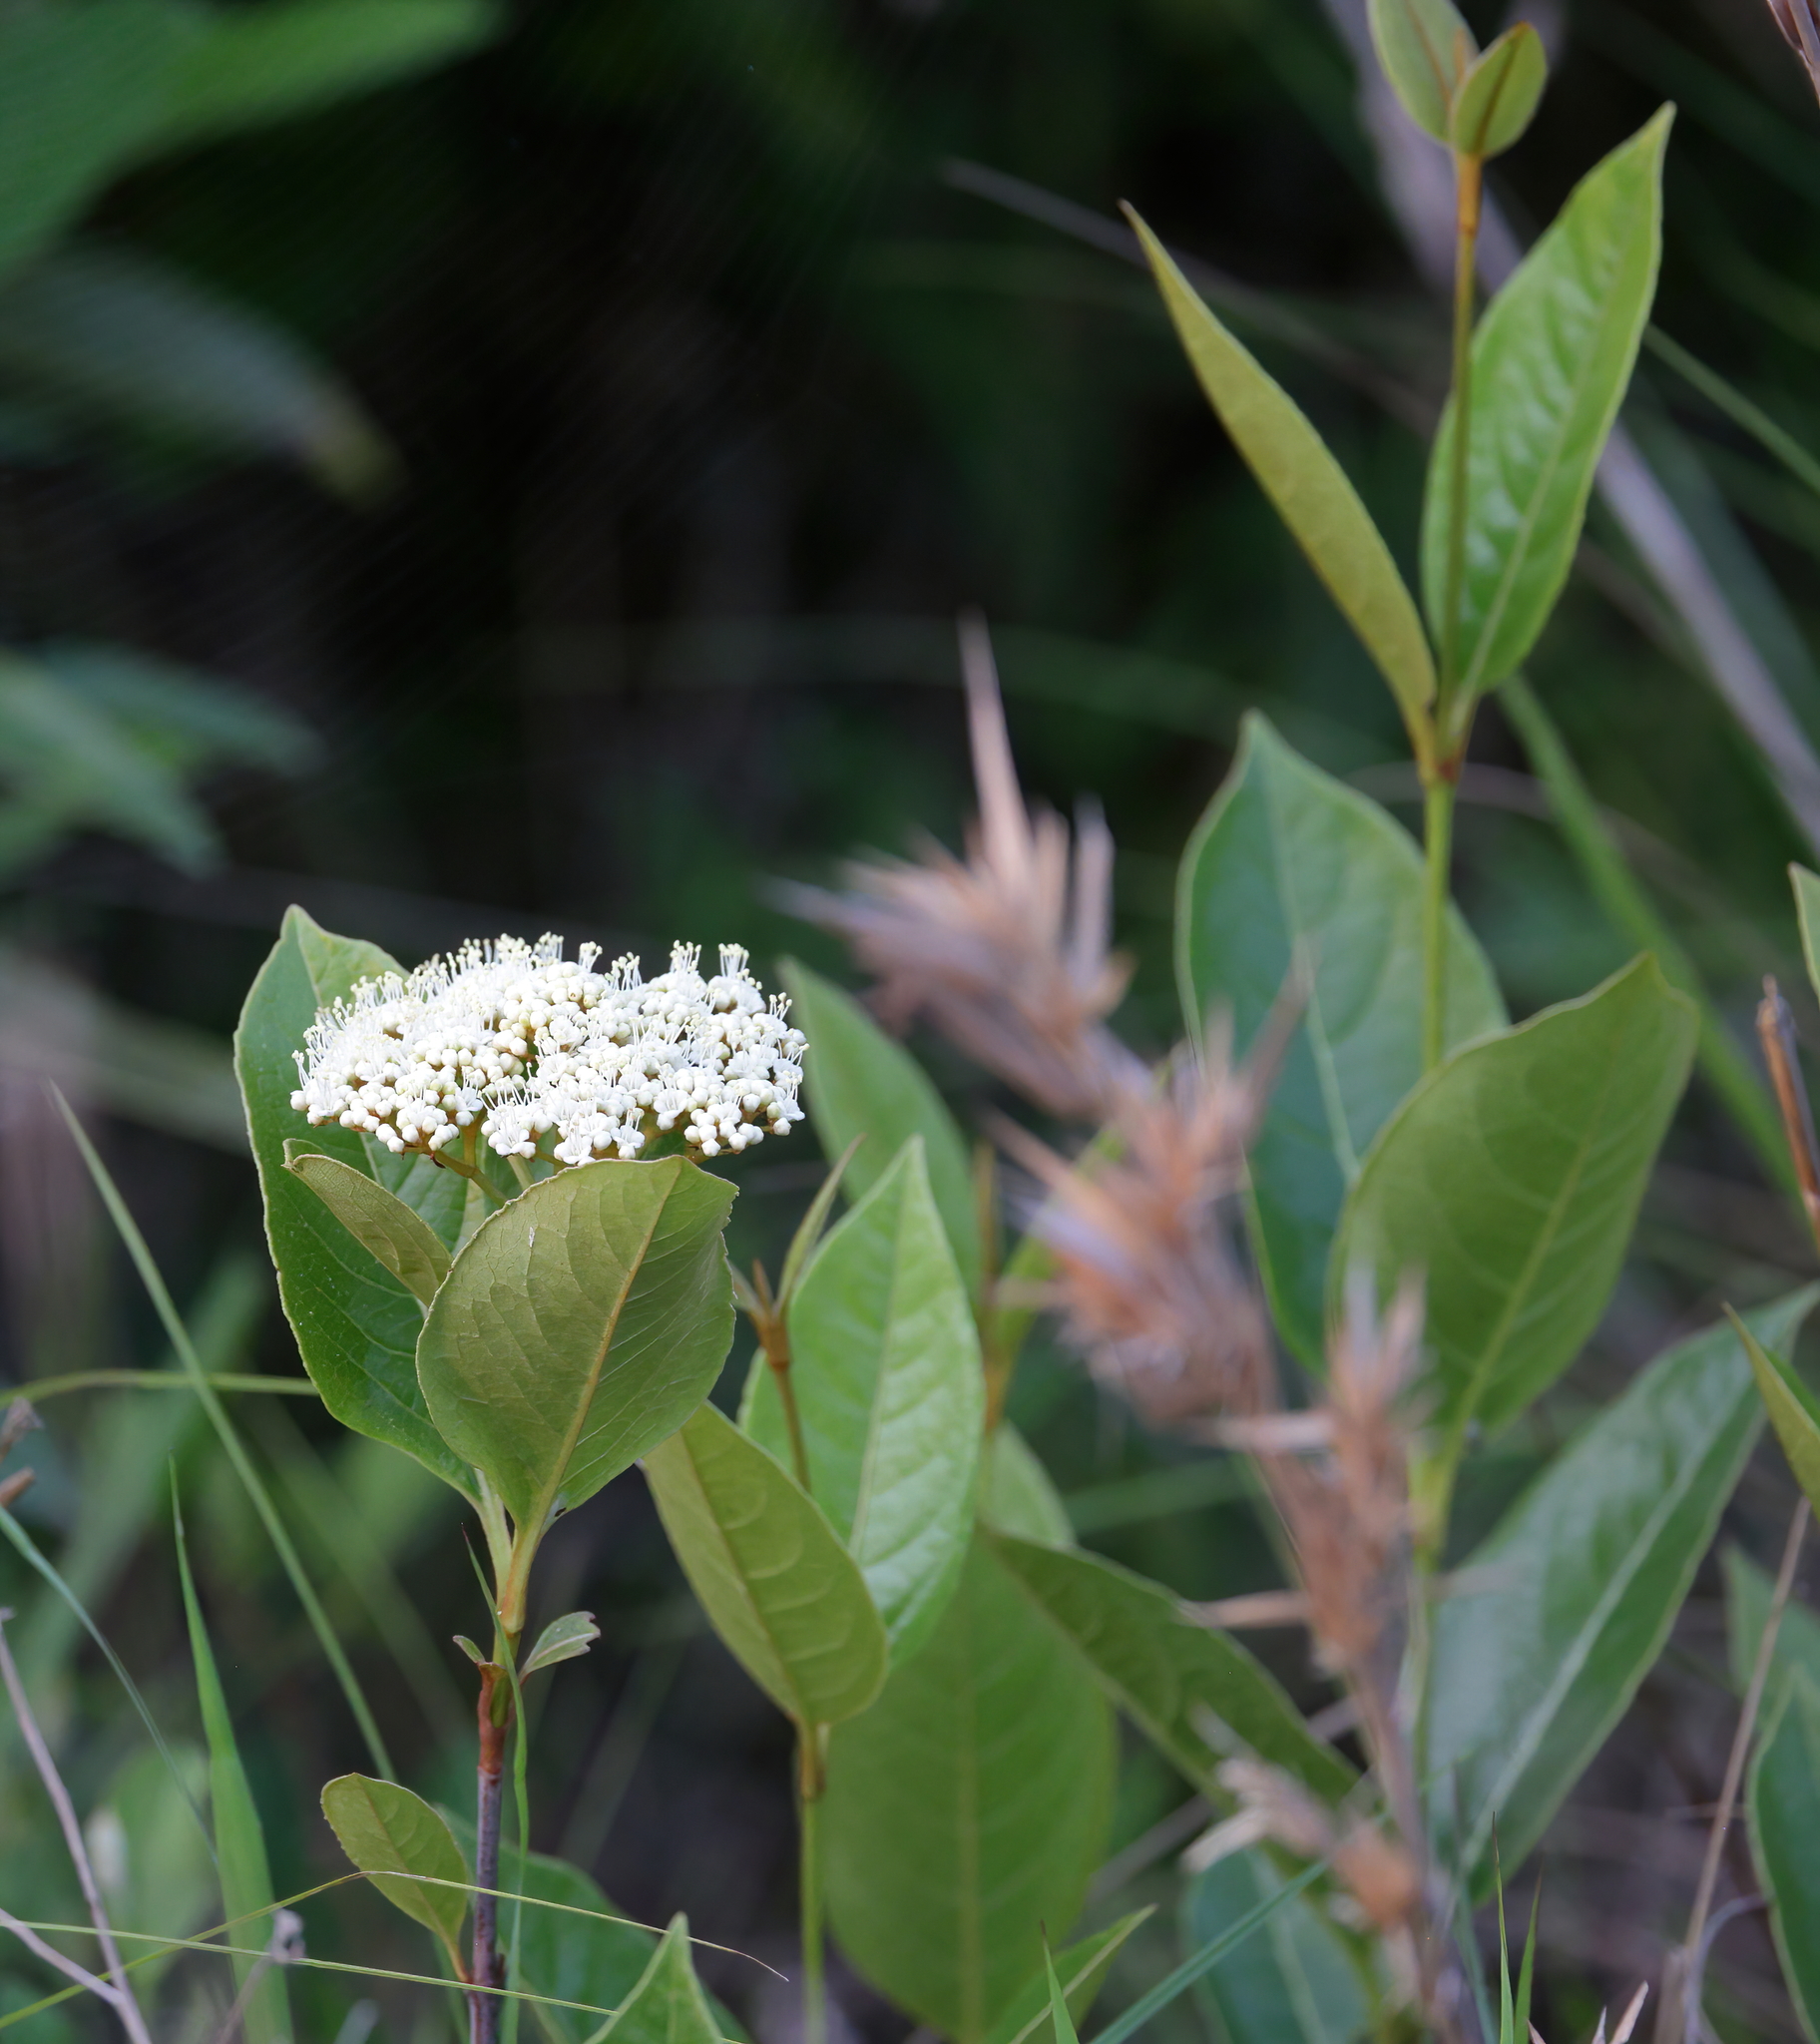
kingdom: Plantae
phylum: Tracheophyta
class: Magnoliopsida
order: Dipsacales
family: Viburnaceae
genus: Viburnum
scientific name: Viburnum nudum
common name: Possum haw
